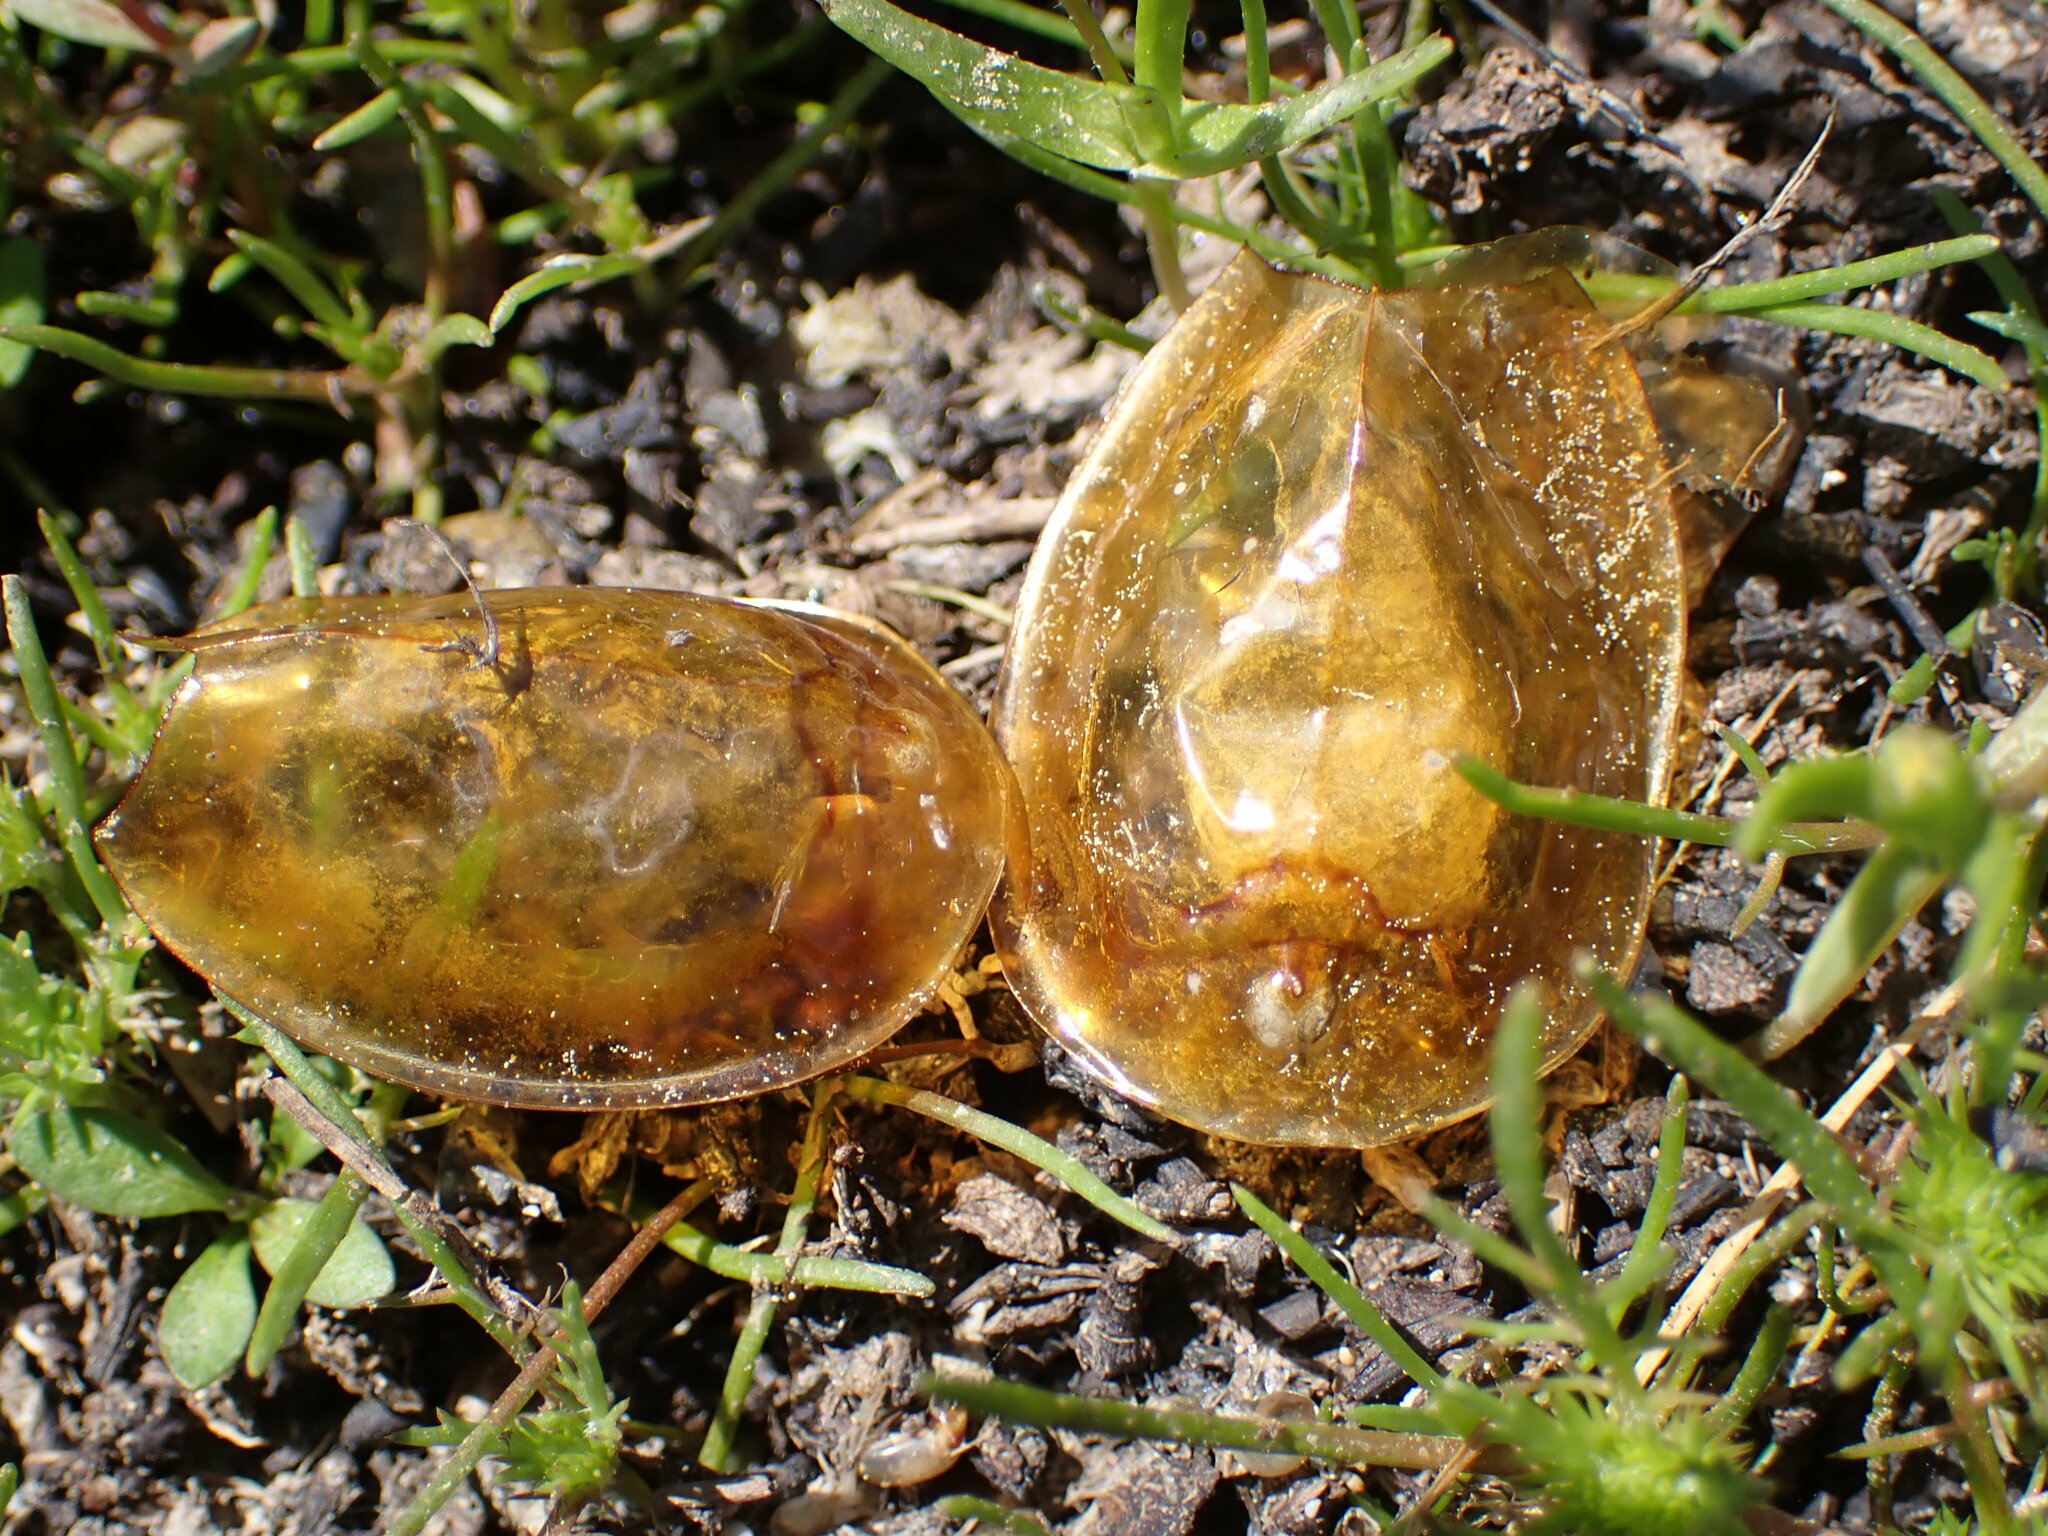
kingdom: Animalia
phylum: Arthropoda
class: Branchiopoda
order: Notostraca
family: Triopsidae
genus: Lepidurus
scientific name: Lepidurus packardi
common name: Vernal pool tadpole shrimp
